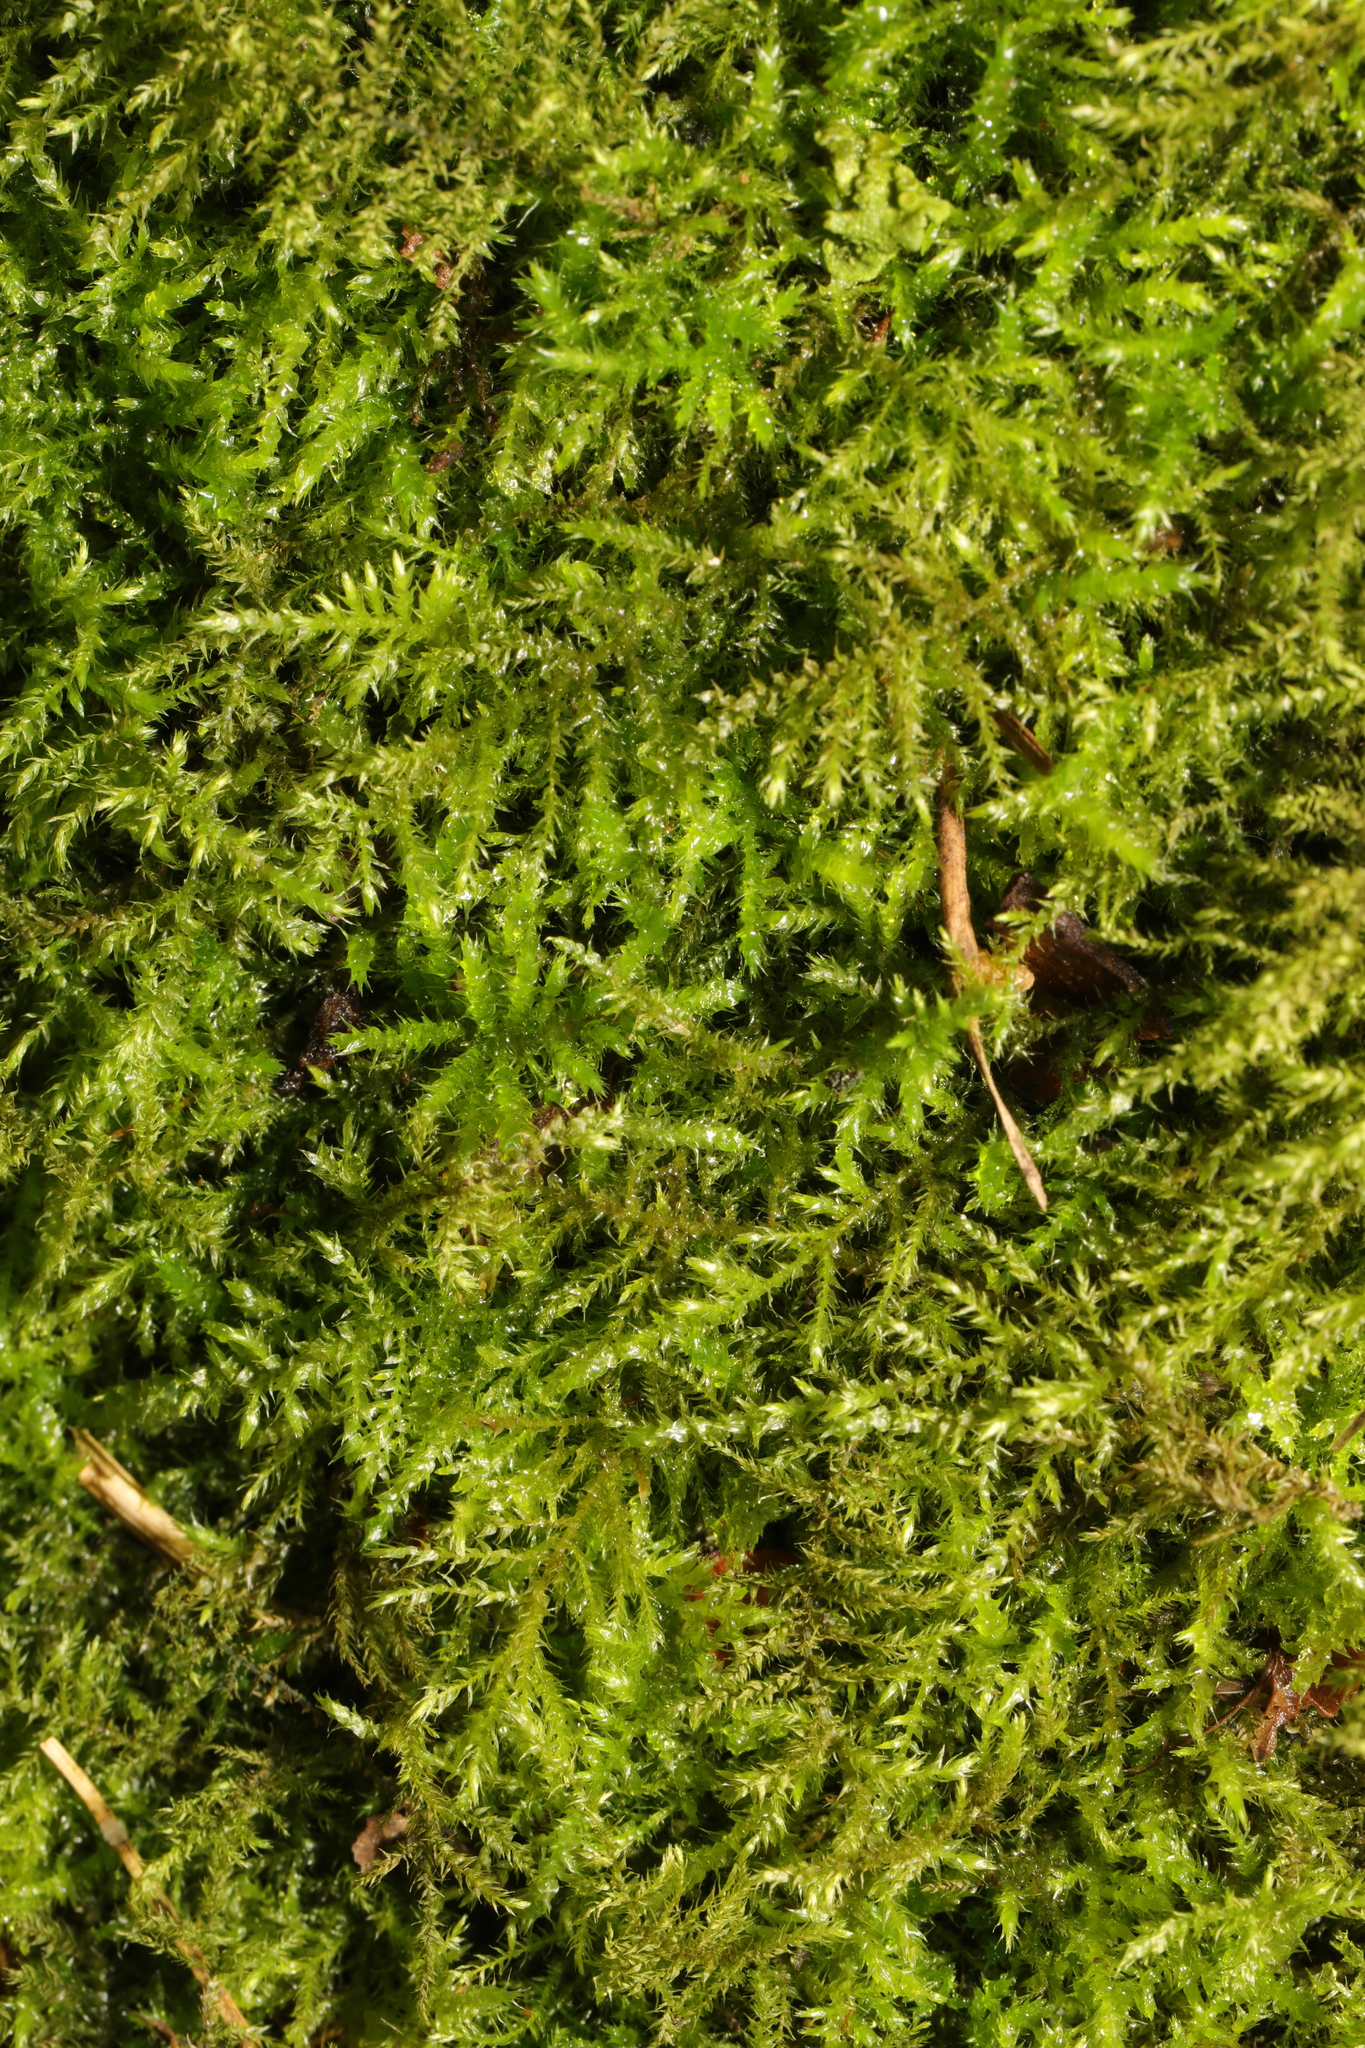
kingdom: Plantae
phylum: Bryophyta
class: Bryopsida
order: Hypnales
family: Brachytheciaceae
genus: Kindbergia
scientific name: Kindbergia praelonga
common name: Slender beaked moss
